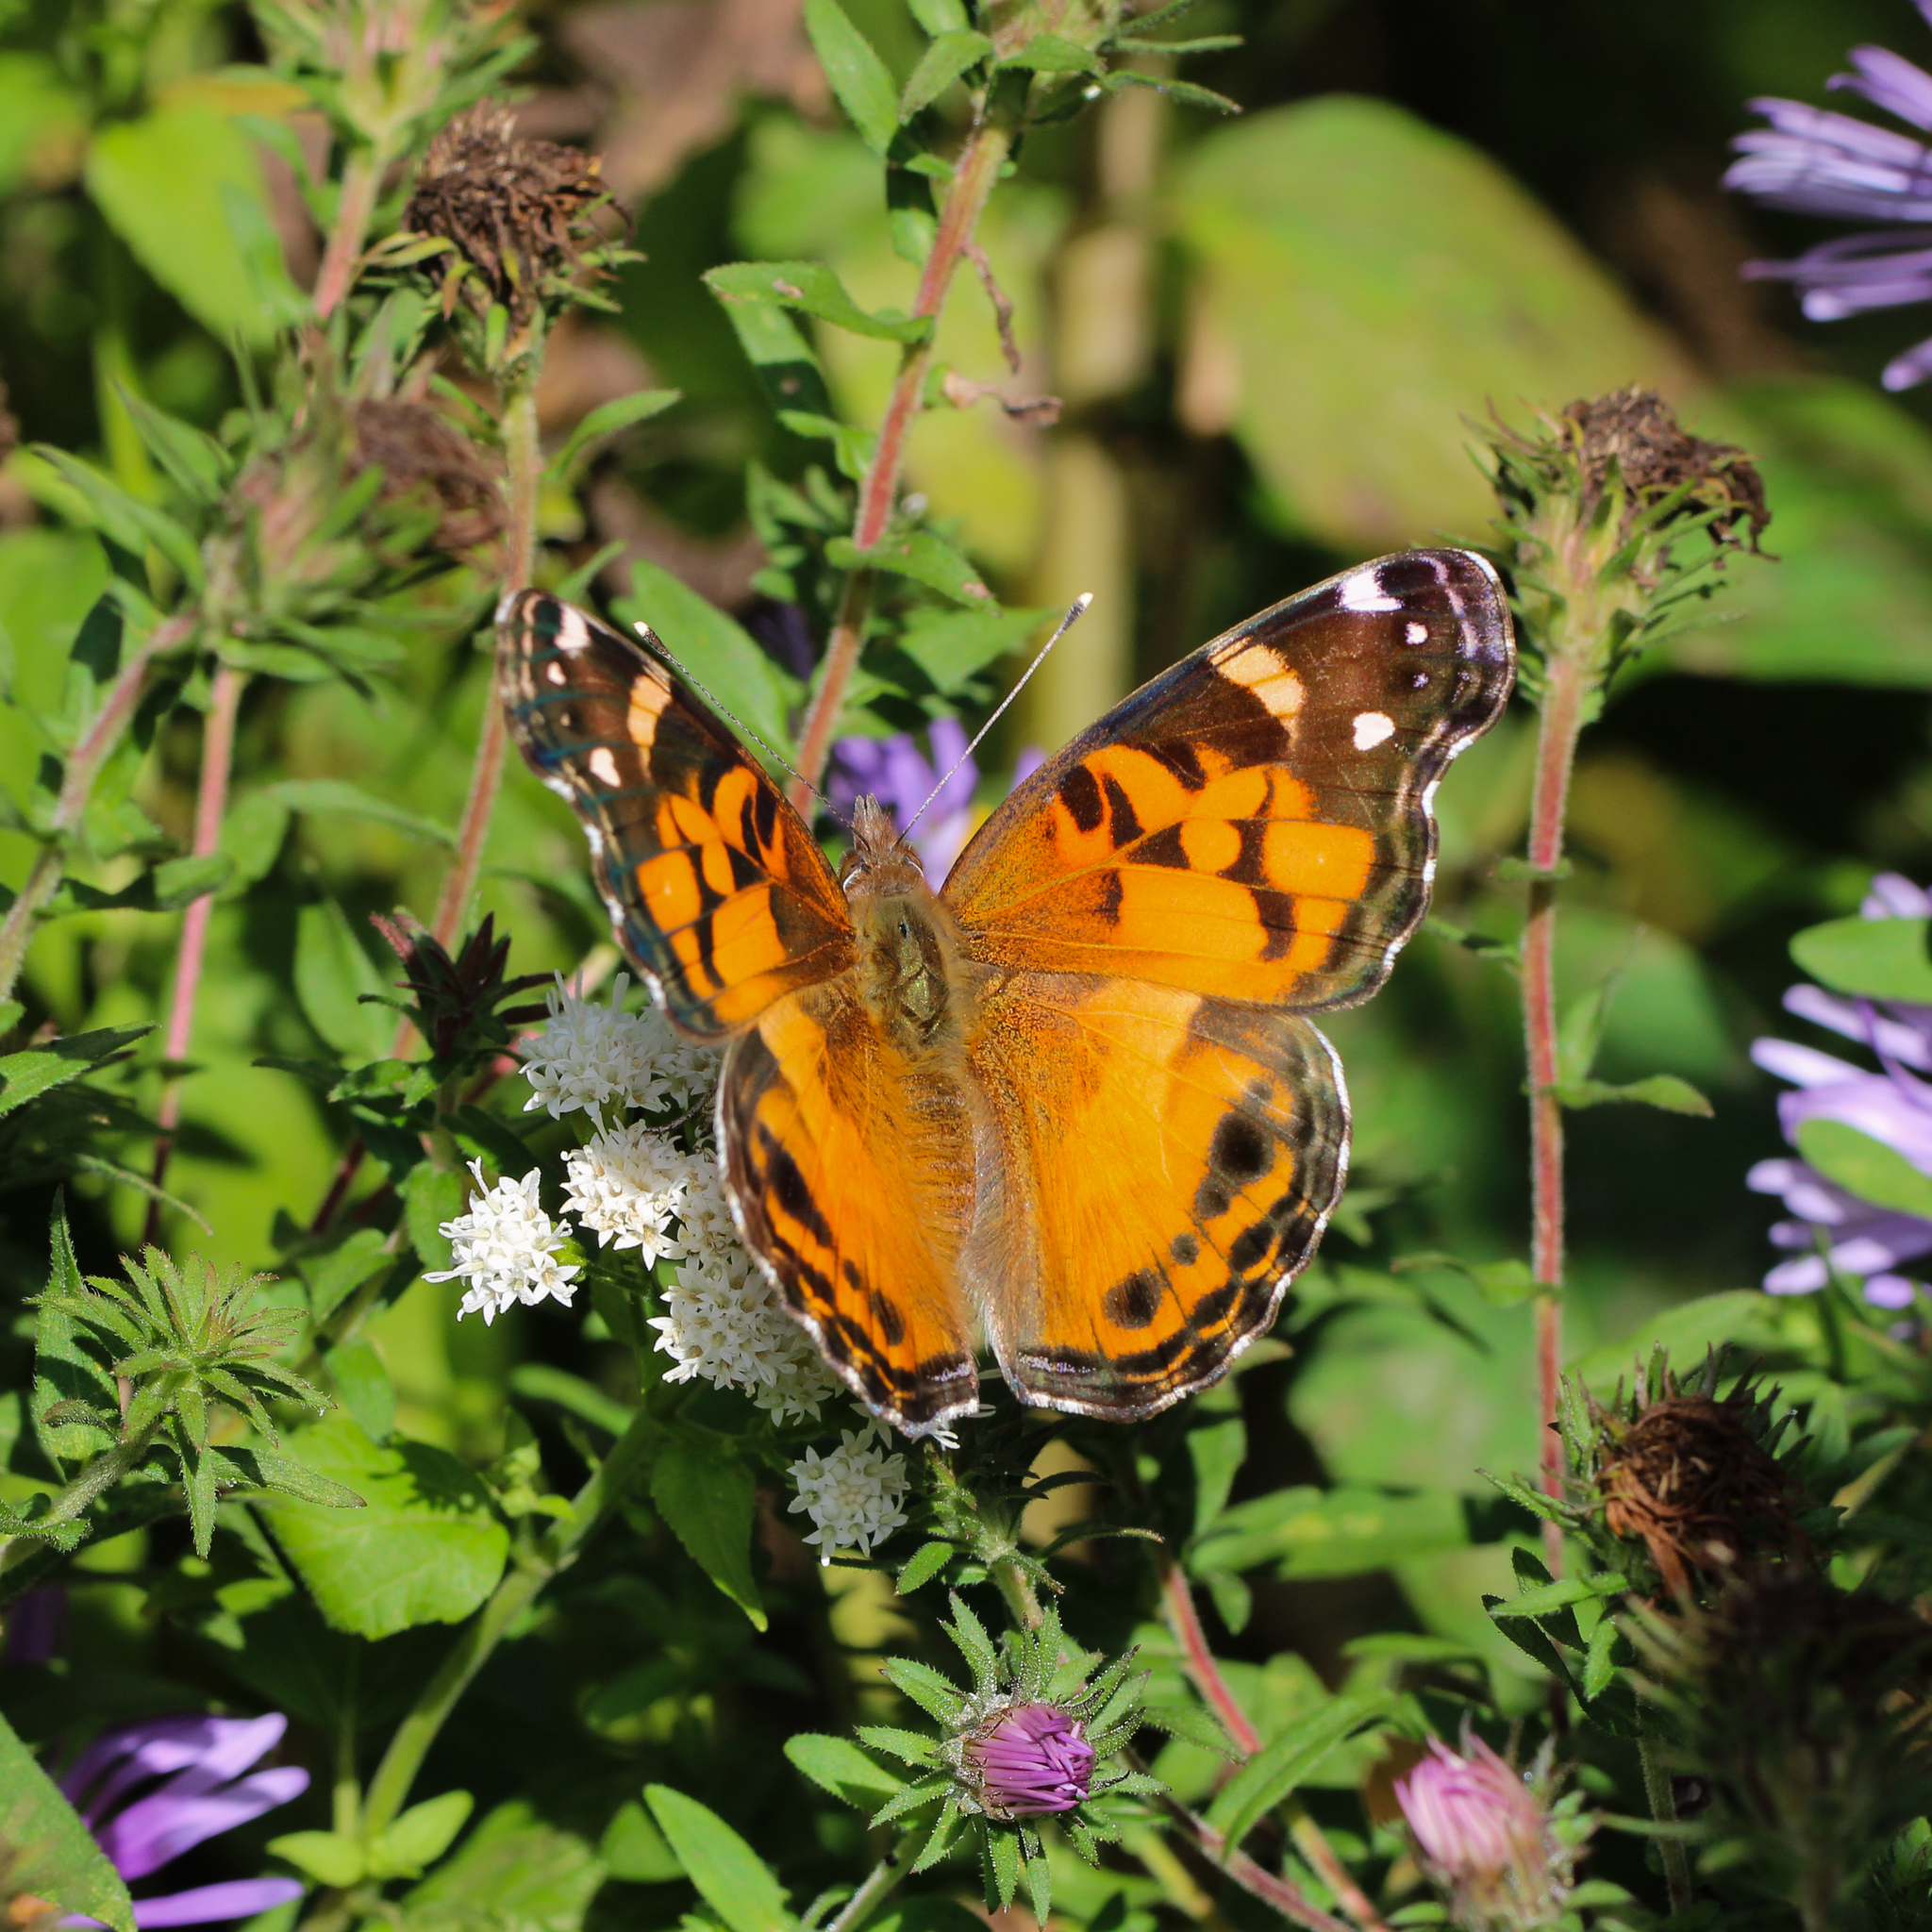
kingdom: Animalia
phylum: Arthropoda
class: Insecta
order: Lepidoptera
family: Nymphalidae
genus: Vanessa
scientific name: Vanessa virginiensis
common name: American lady
